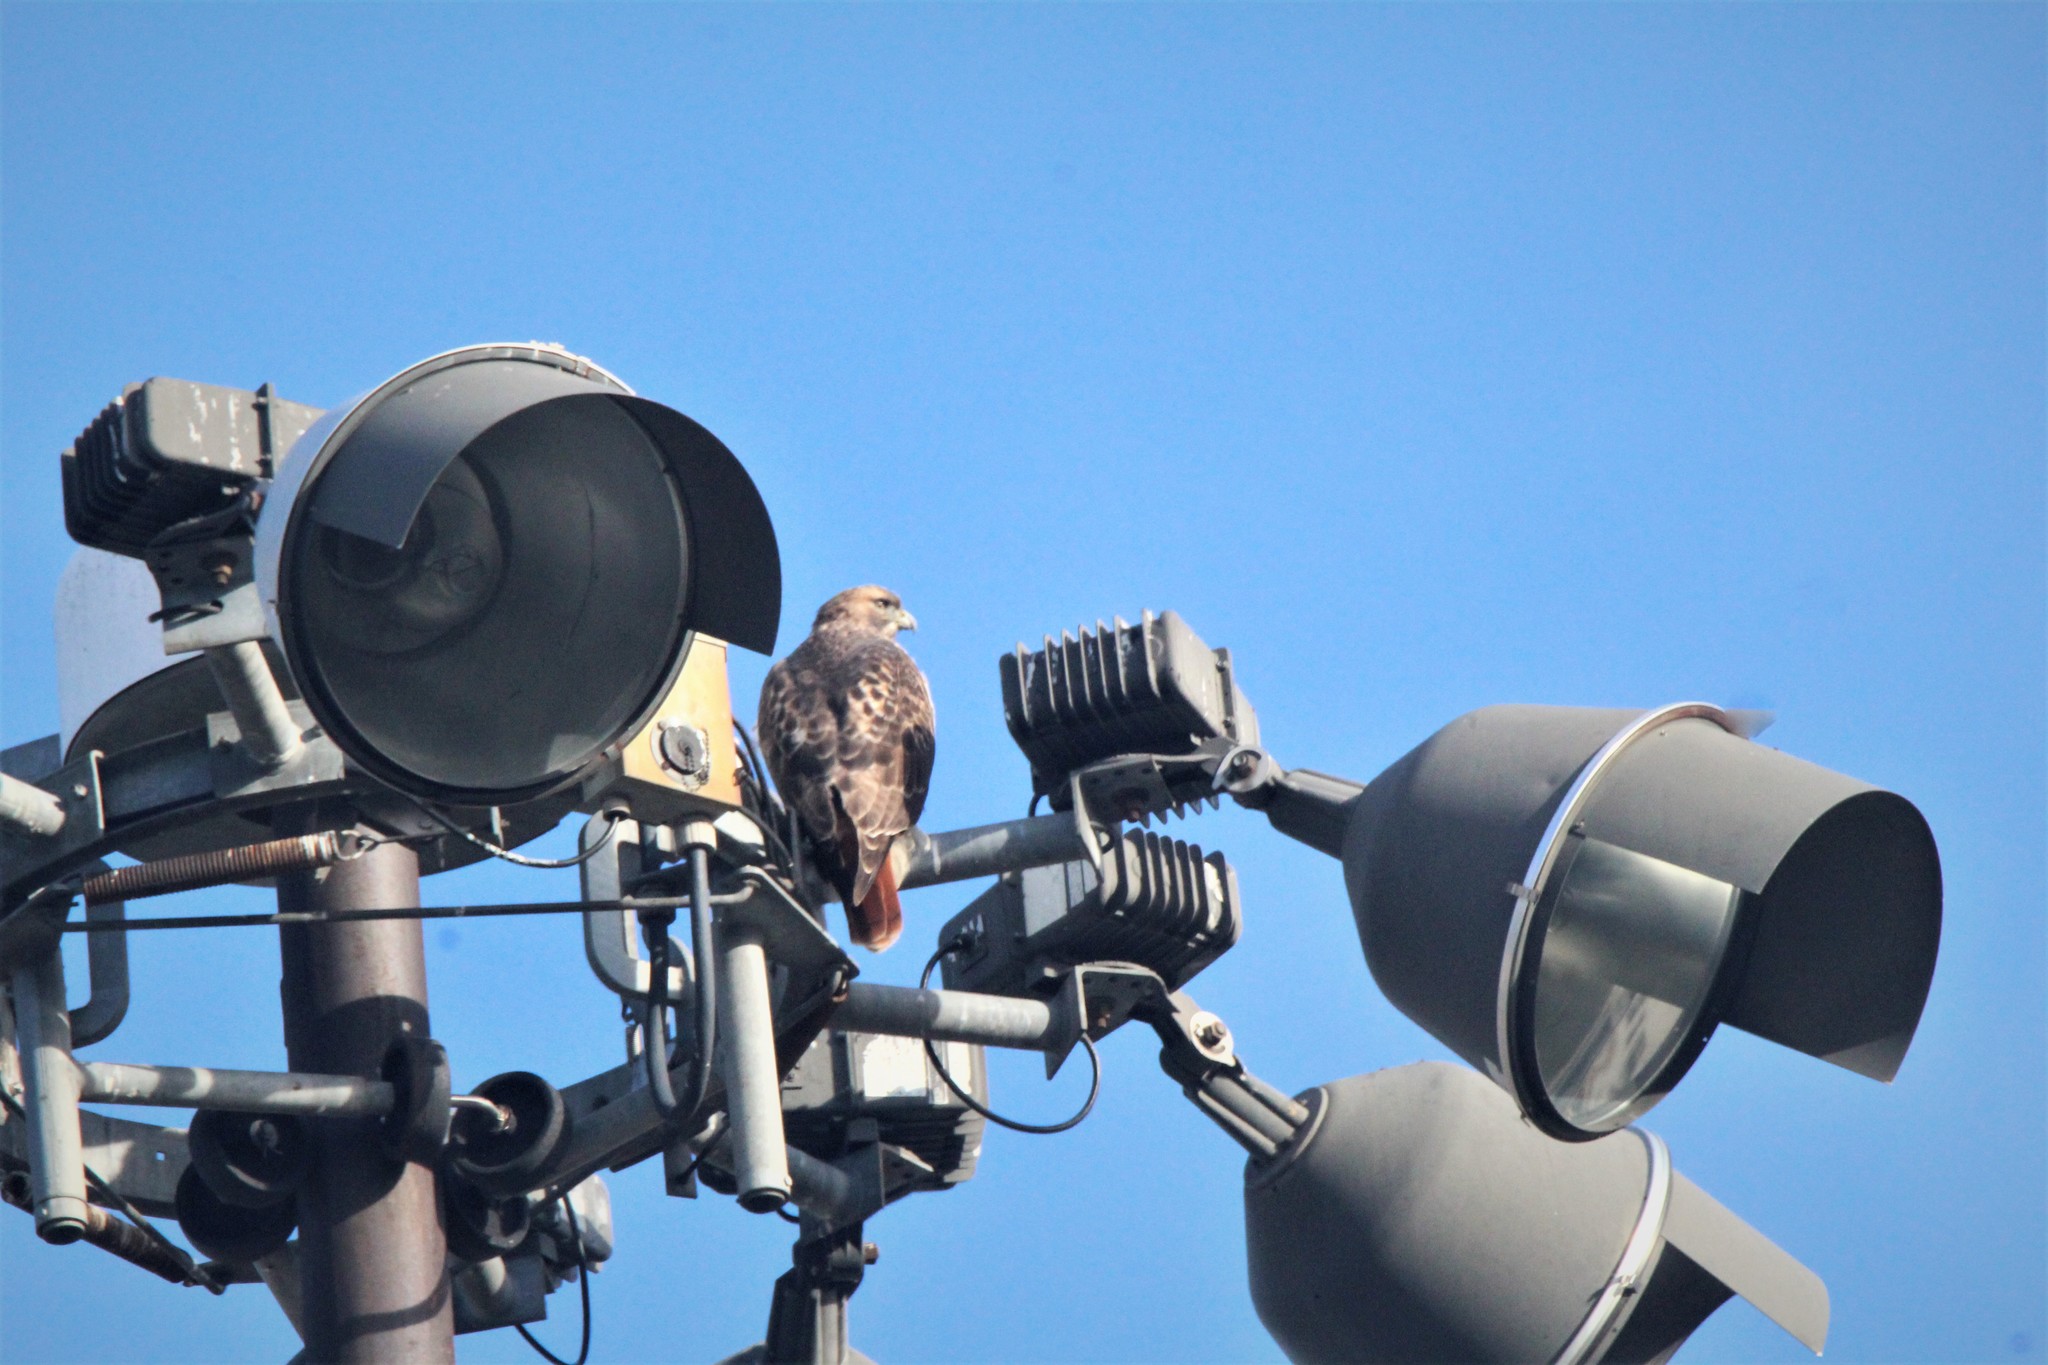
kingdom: Animalia
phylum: Chordata
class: Aves
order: Accipitriformes
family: Accipitridae
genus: Buteo
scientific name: Buteo jamaicensis
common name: Red-tailed hawk
